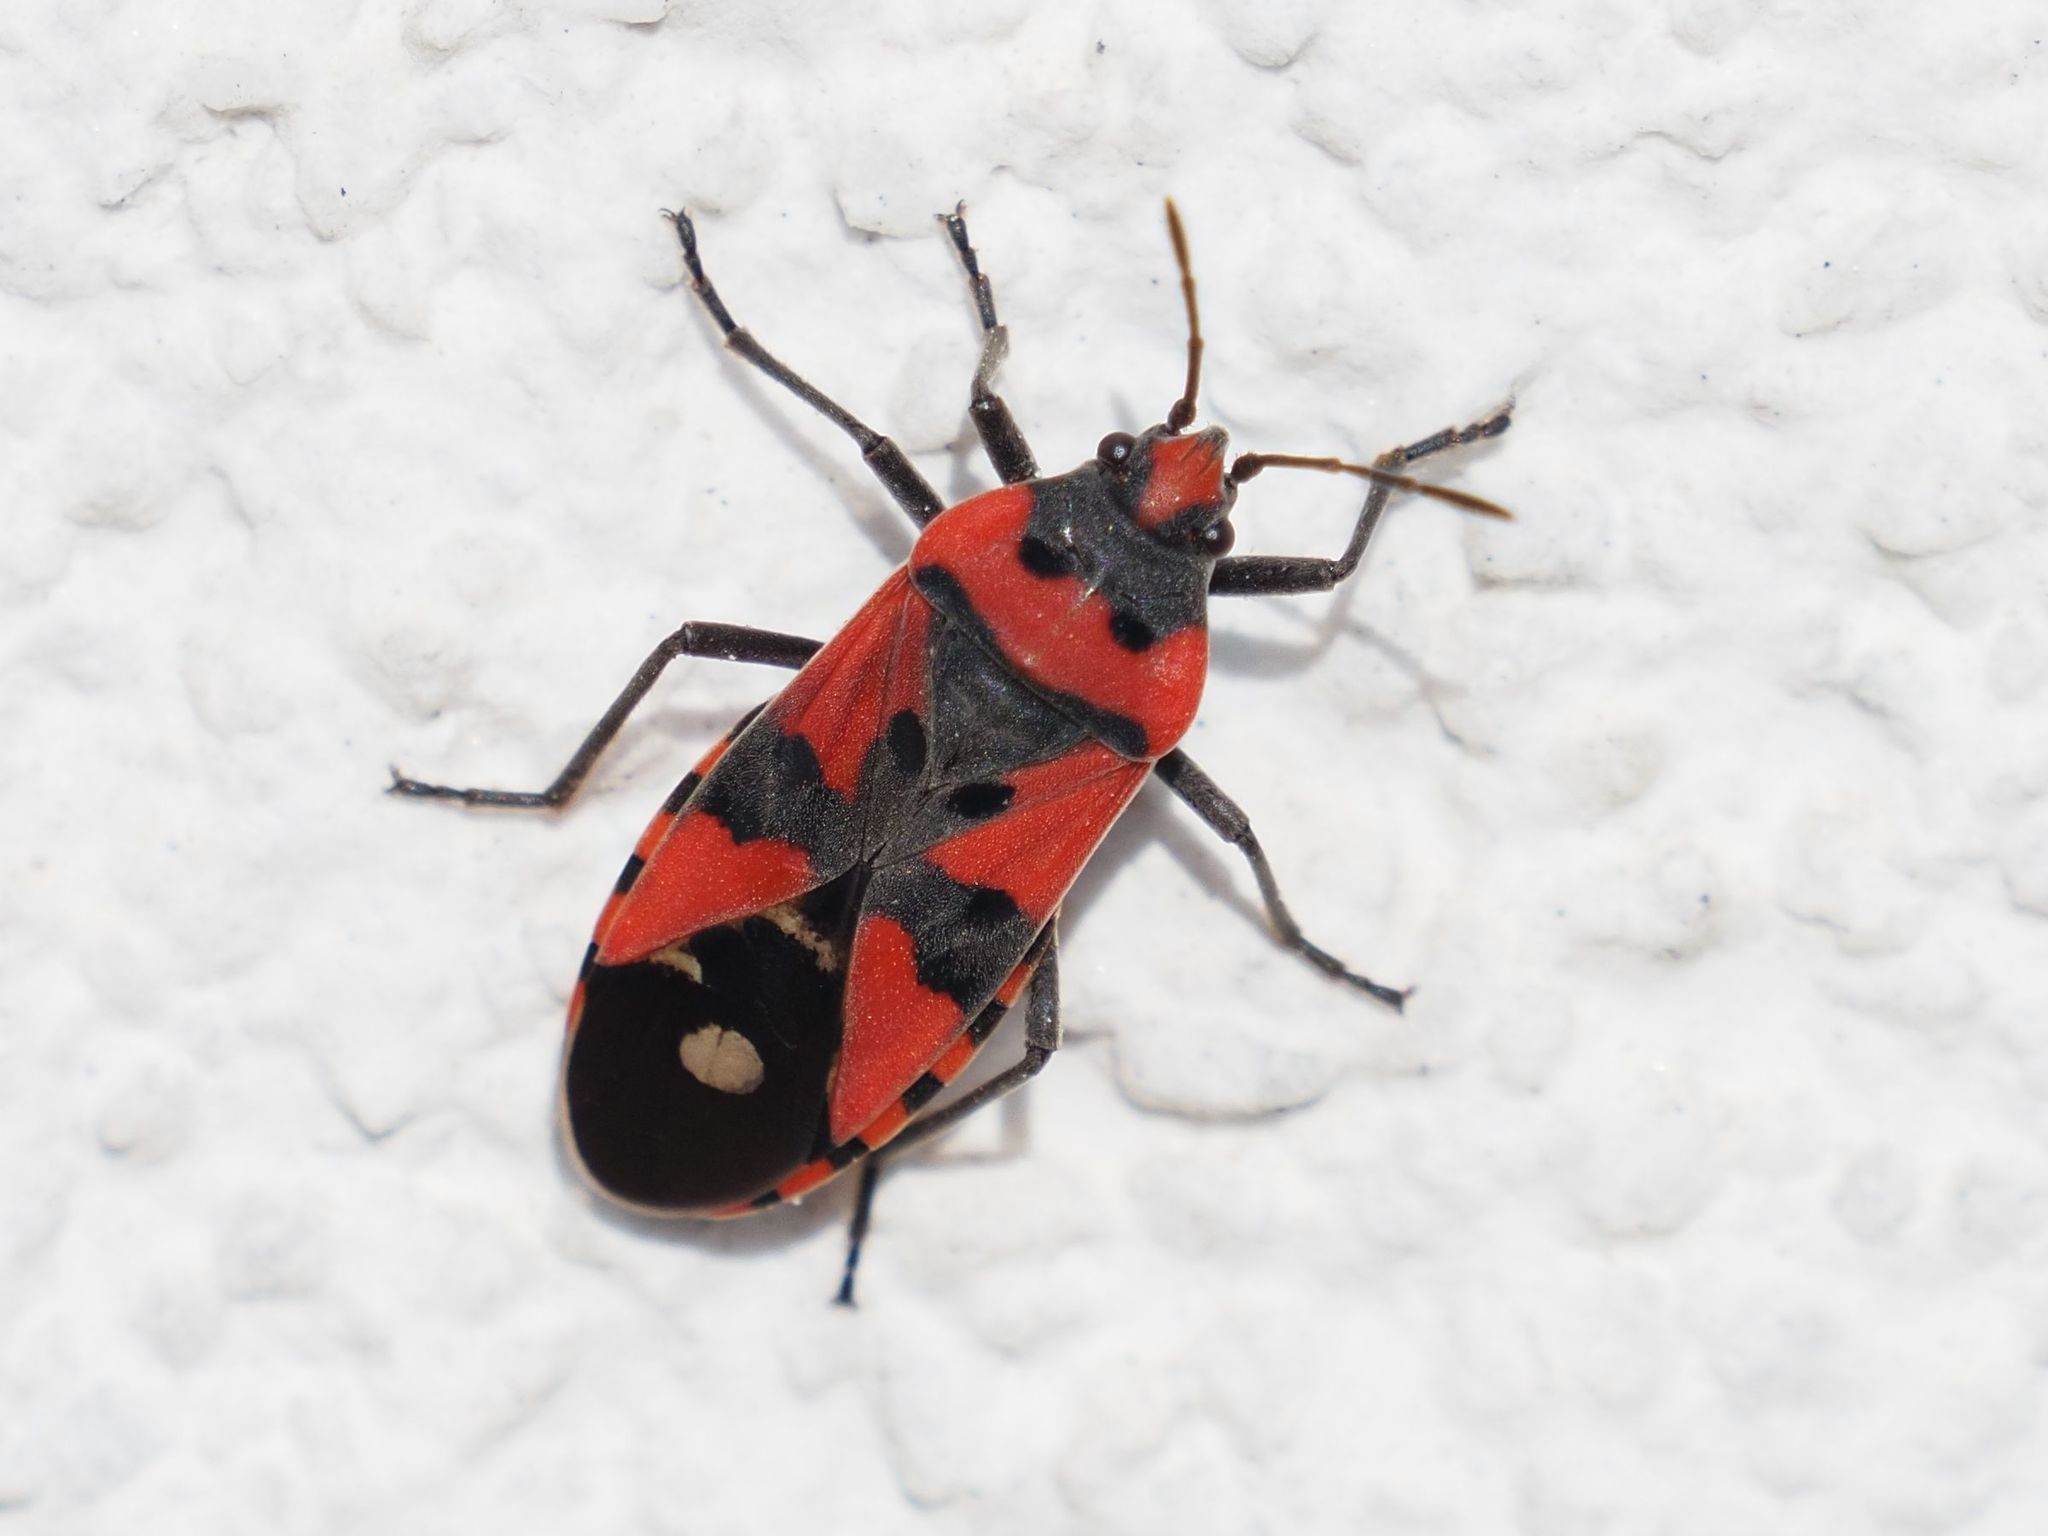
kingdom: Animalia
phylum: Arthropoda
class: Insecta
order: Hemiptera
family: Lygaeidae
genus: Lygaeus
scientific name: Lygaeus equestris
